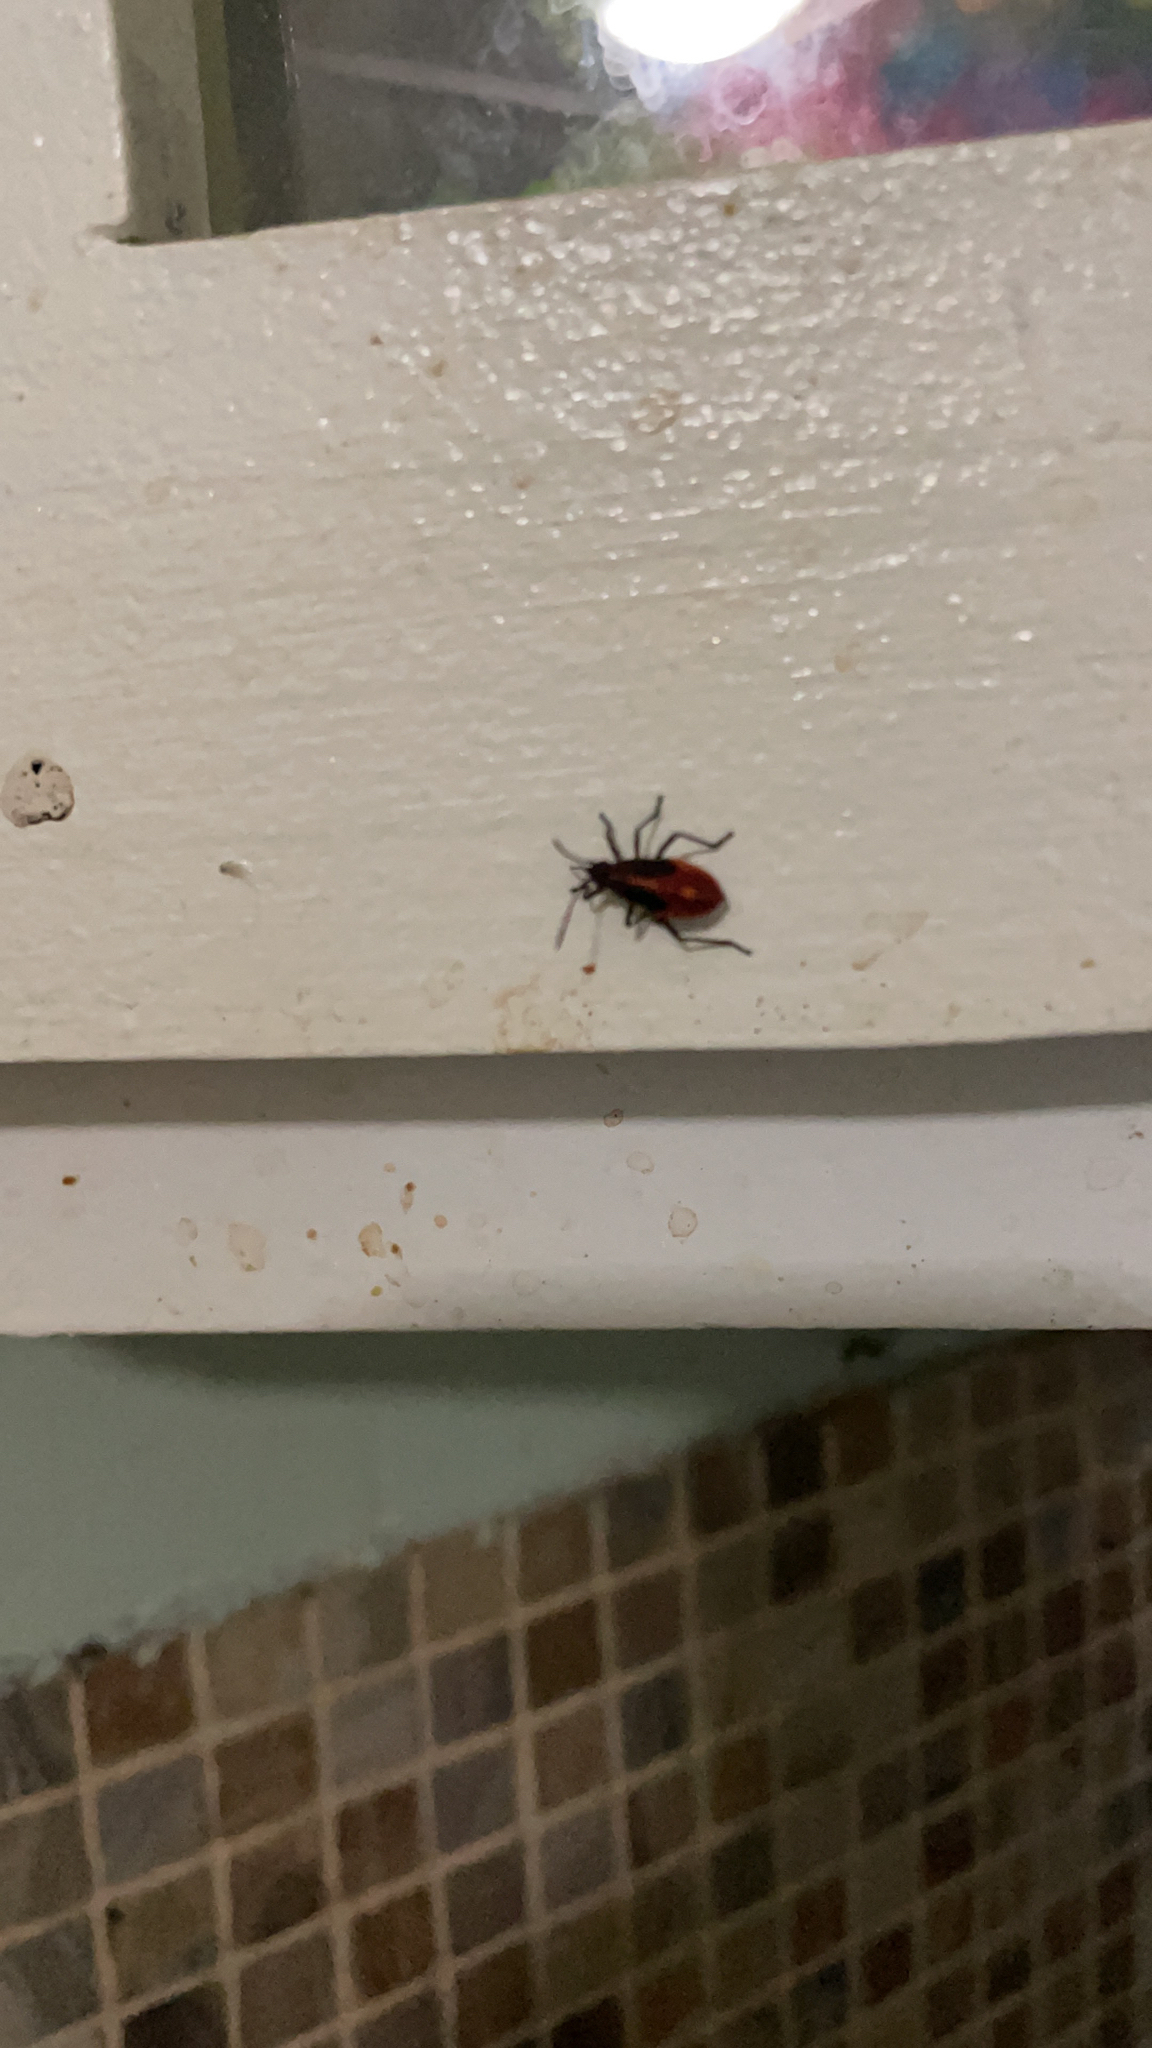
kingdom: Animalia
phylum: Arthropoda
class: Insecta
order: Hemiptera
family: Rhopalidae
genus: Boisea
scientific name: Boisea trivittata
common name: Boxelder bug
